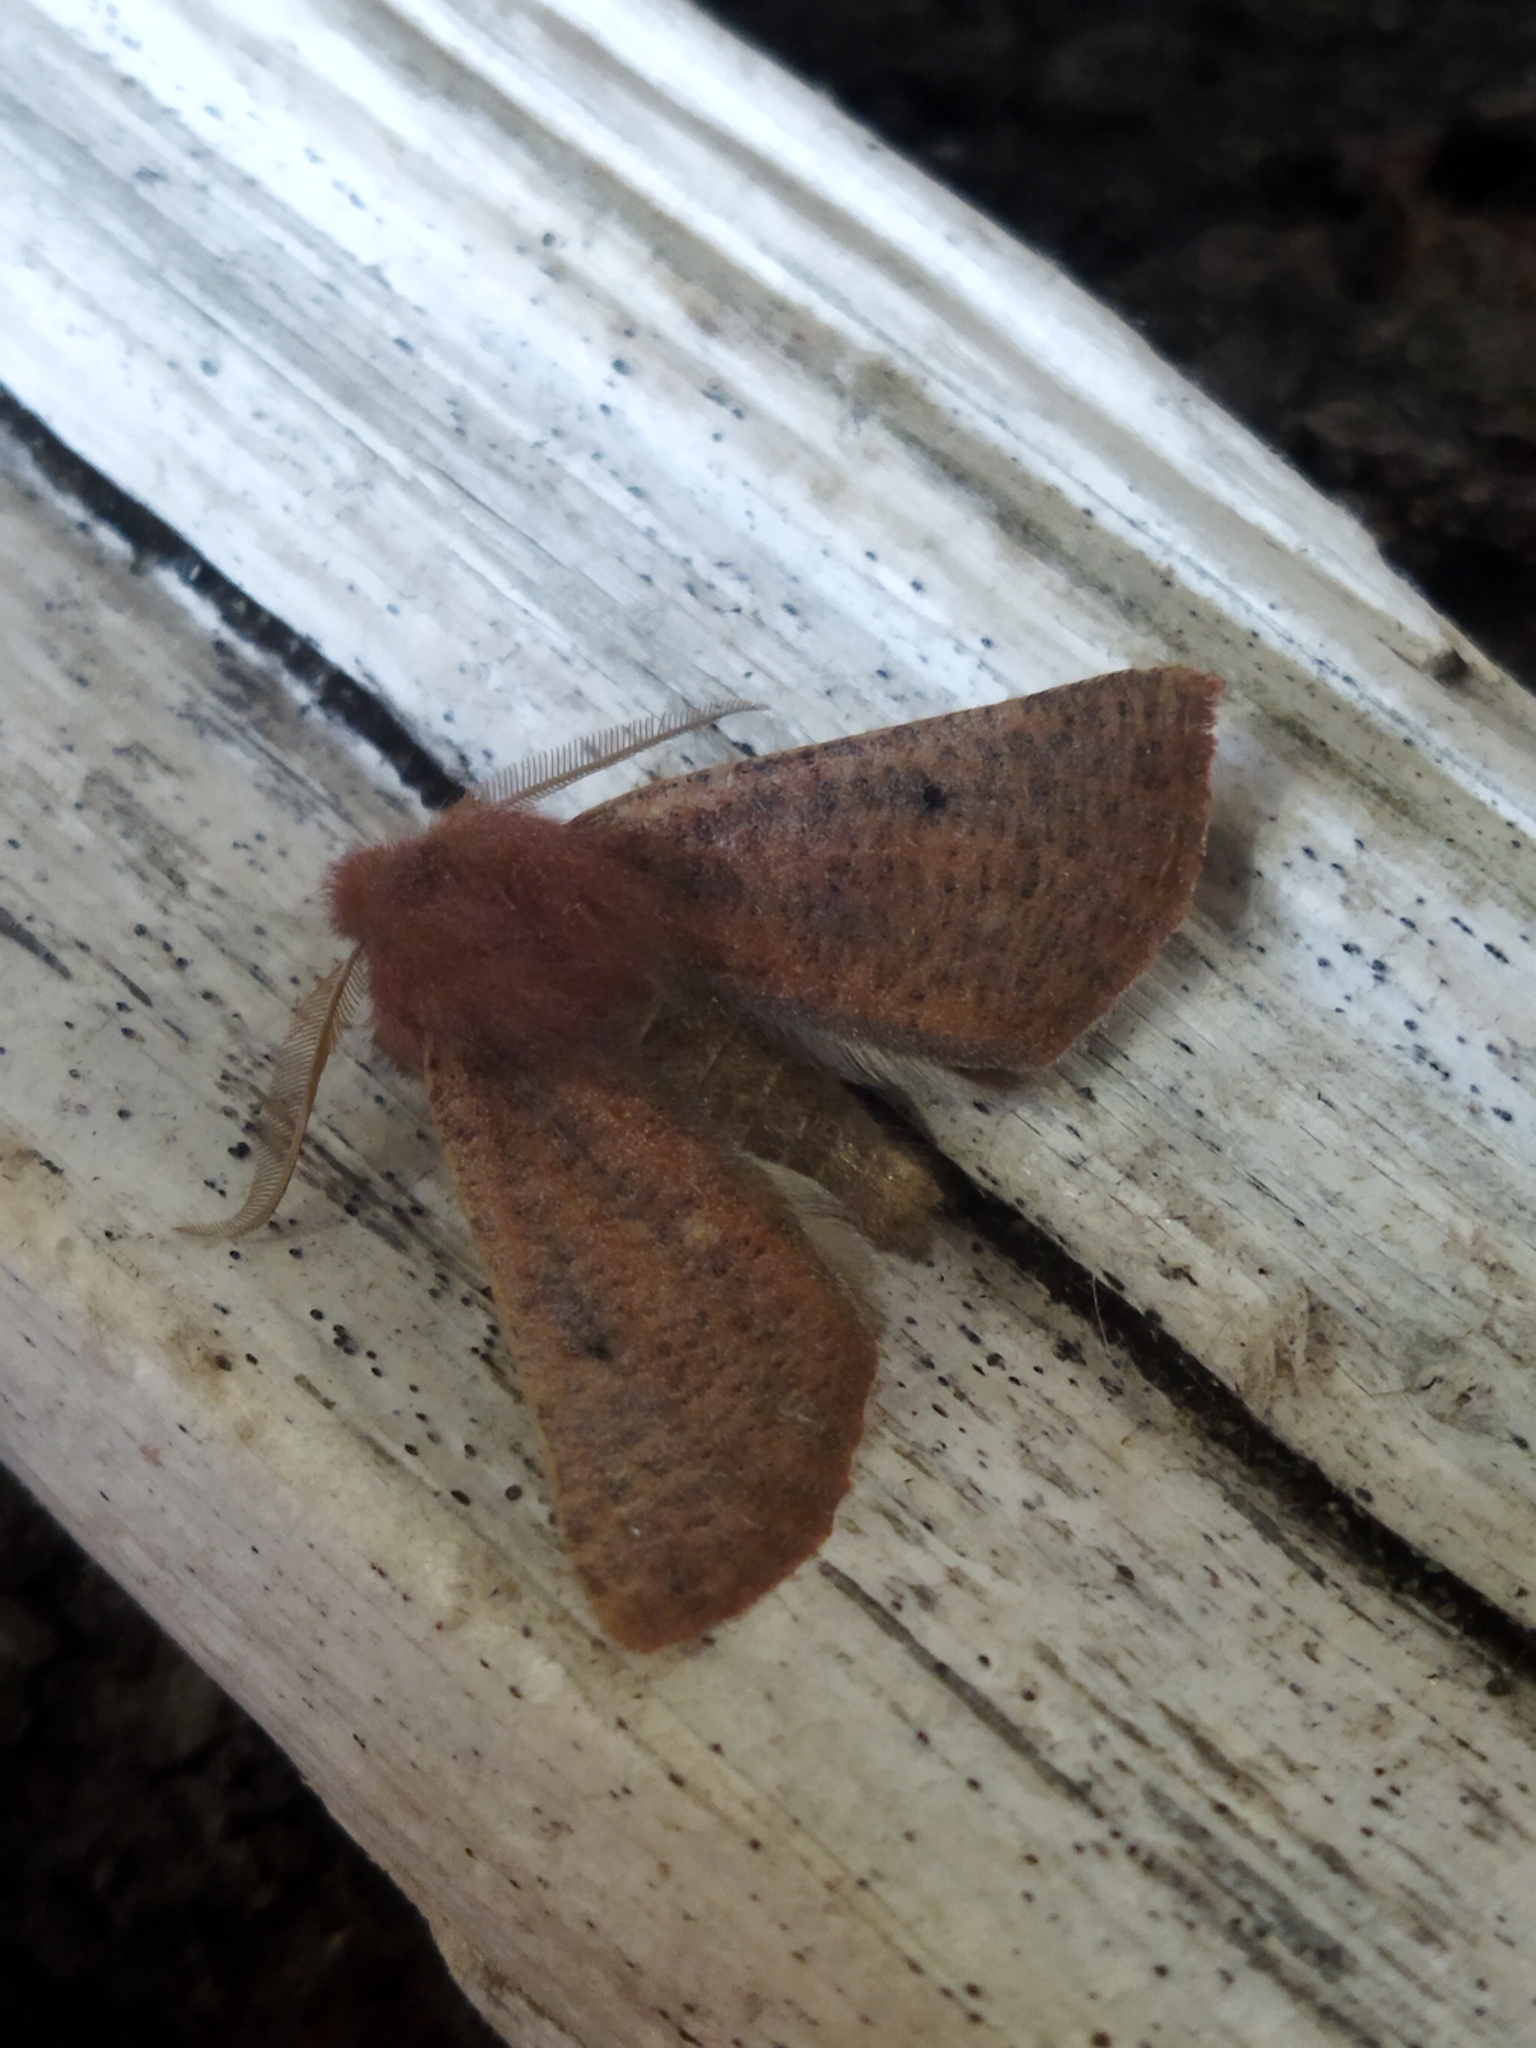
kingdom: Animalia
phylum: Arthropoda
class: Insecta
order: Lepidoptera
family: Geometridae
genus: Dasycorsa
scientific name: Dasycorsa modesta
